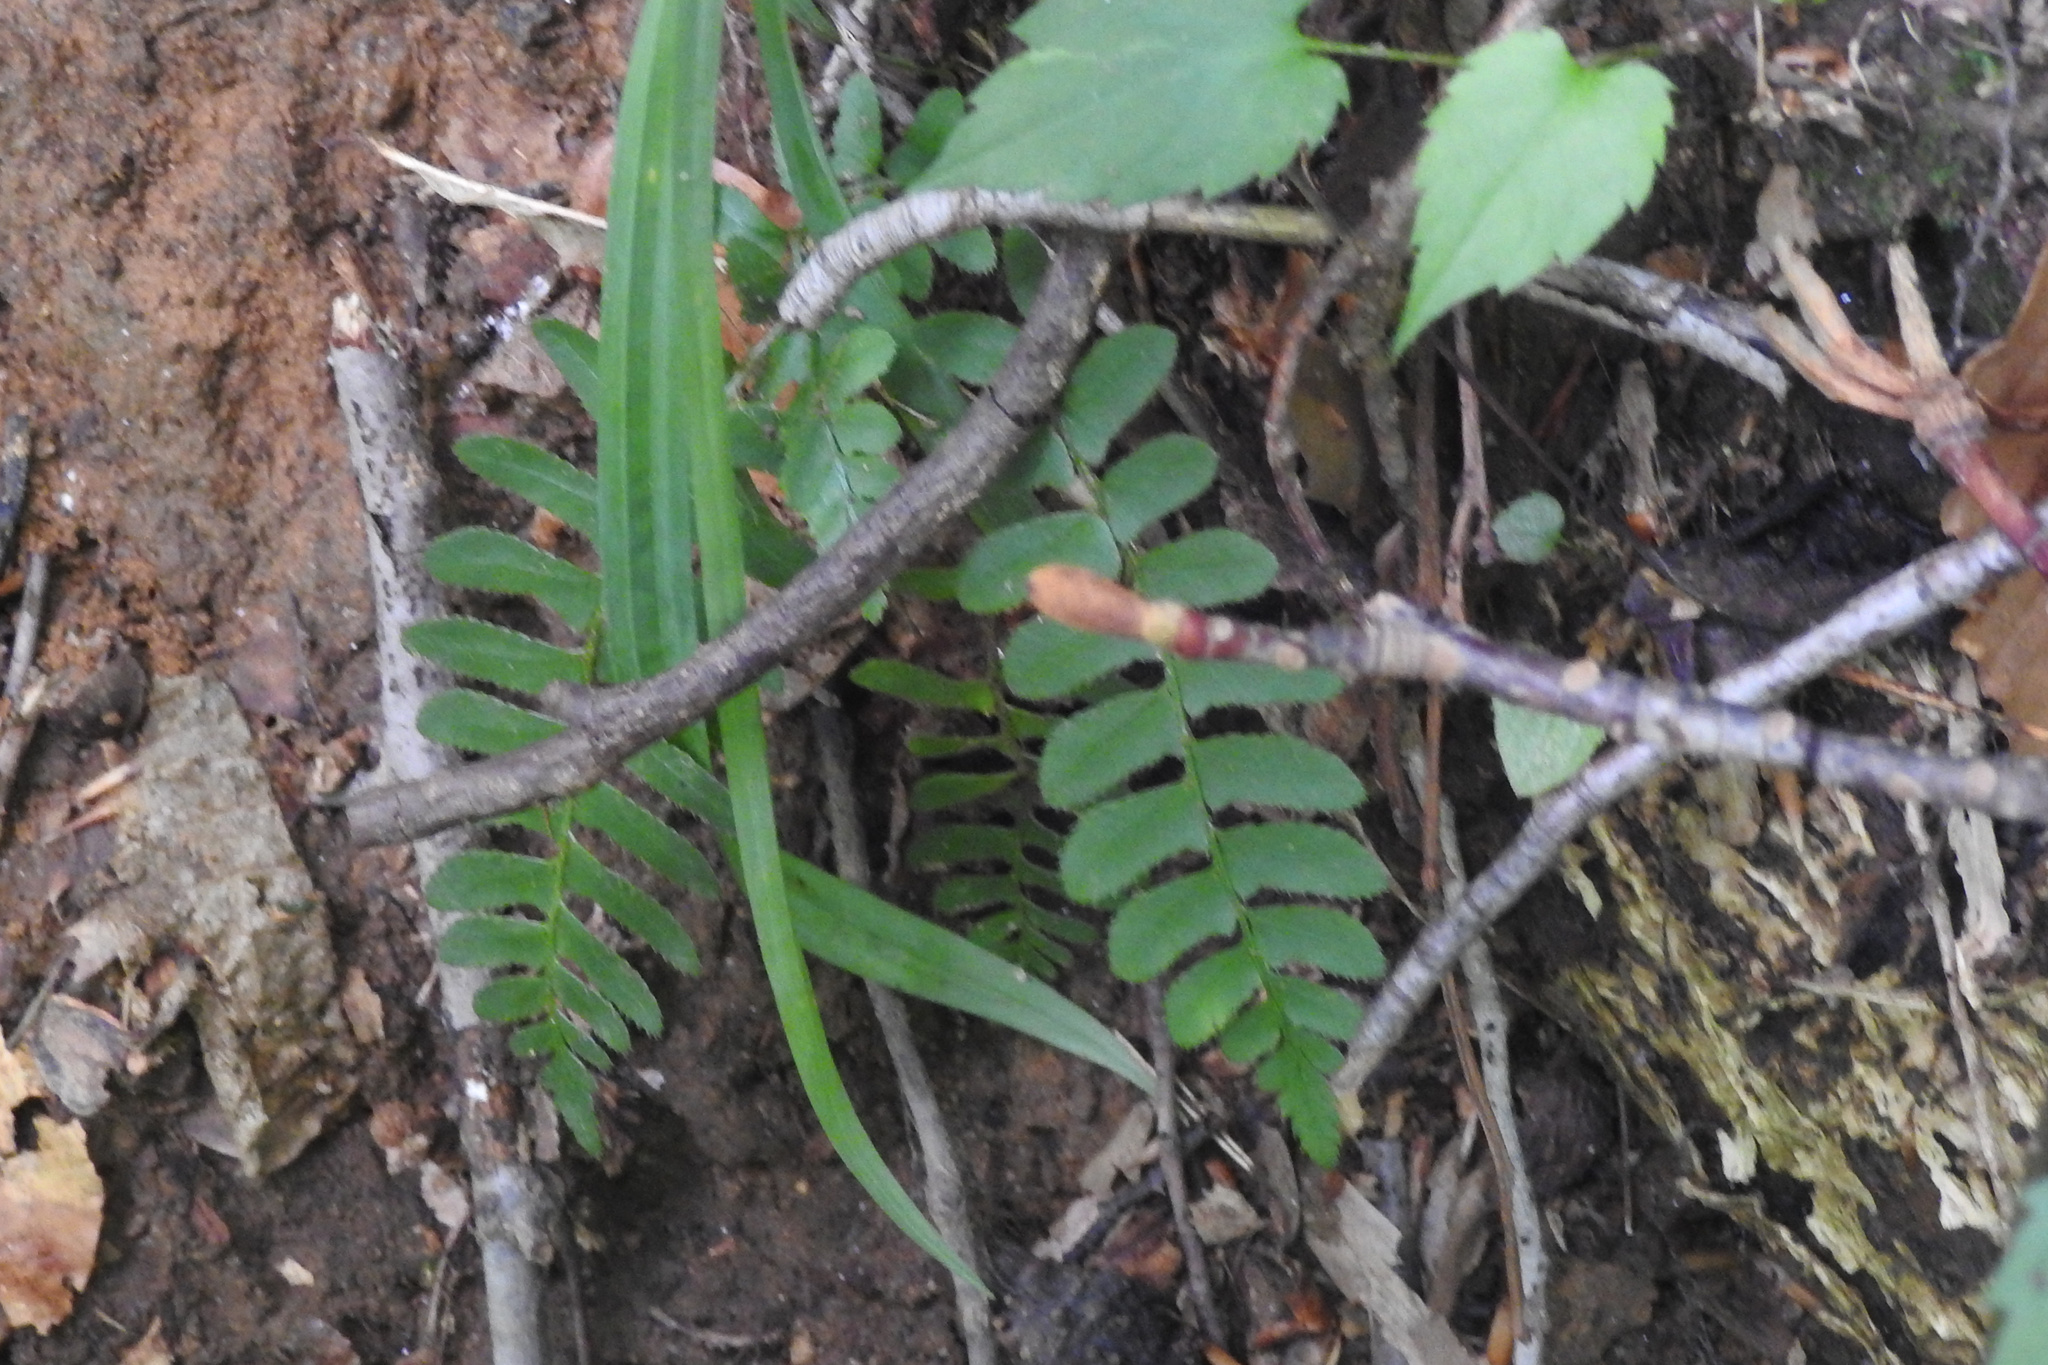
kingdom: Plantae
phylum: Tracheophyta
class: Polypodiopsida
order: Polypodiales
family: Dryopteridaceae
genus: Polystichum
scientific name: Polystichum acrostichoides
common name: Christmas fern
